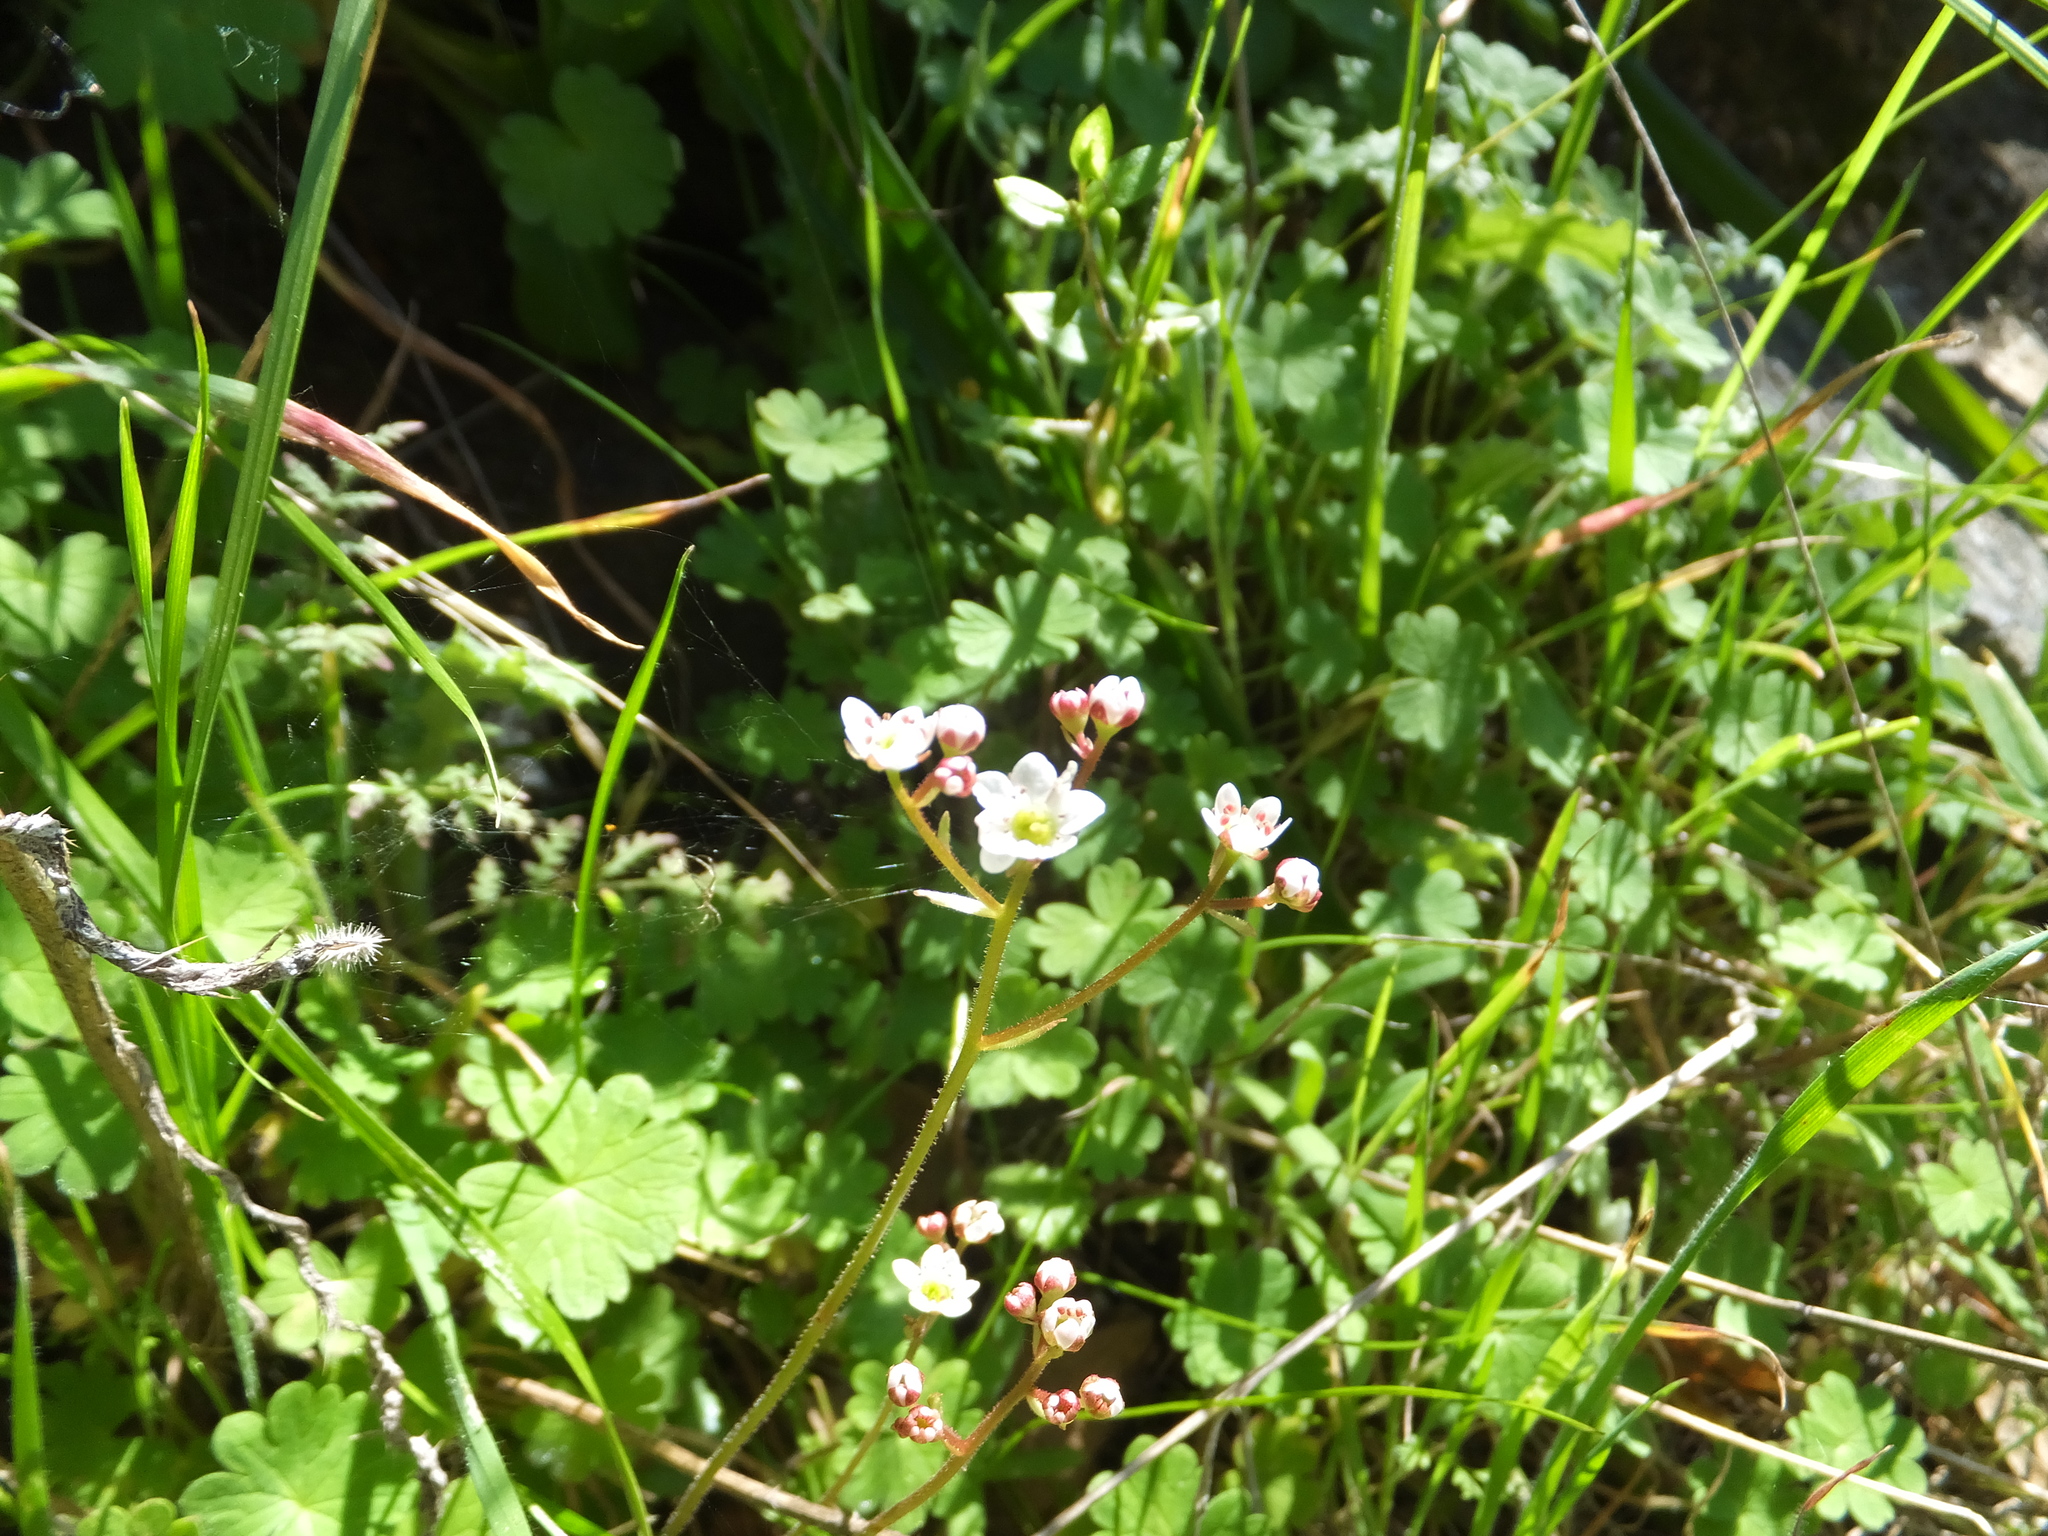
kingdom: Plantae
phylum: Tracheophyta
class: Magnoliopsida
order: Saxifragales
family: Saxifragaceae
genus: Micranthes
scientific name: Micranthes californica
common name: California saxifrage
